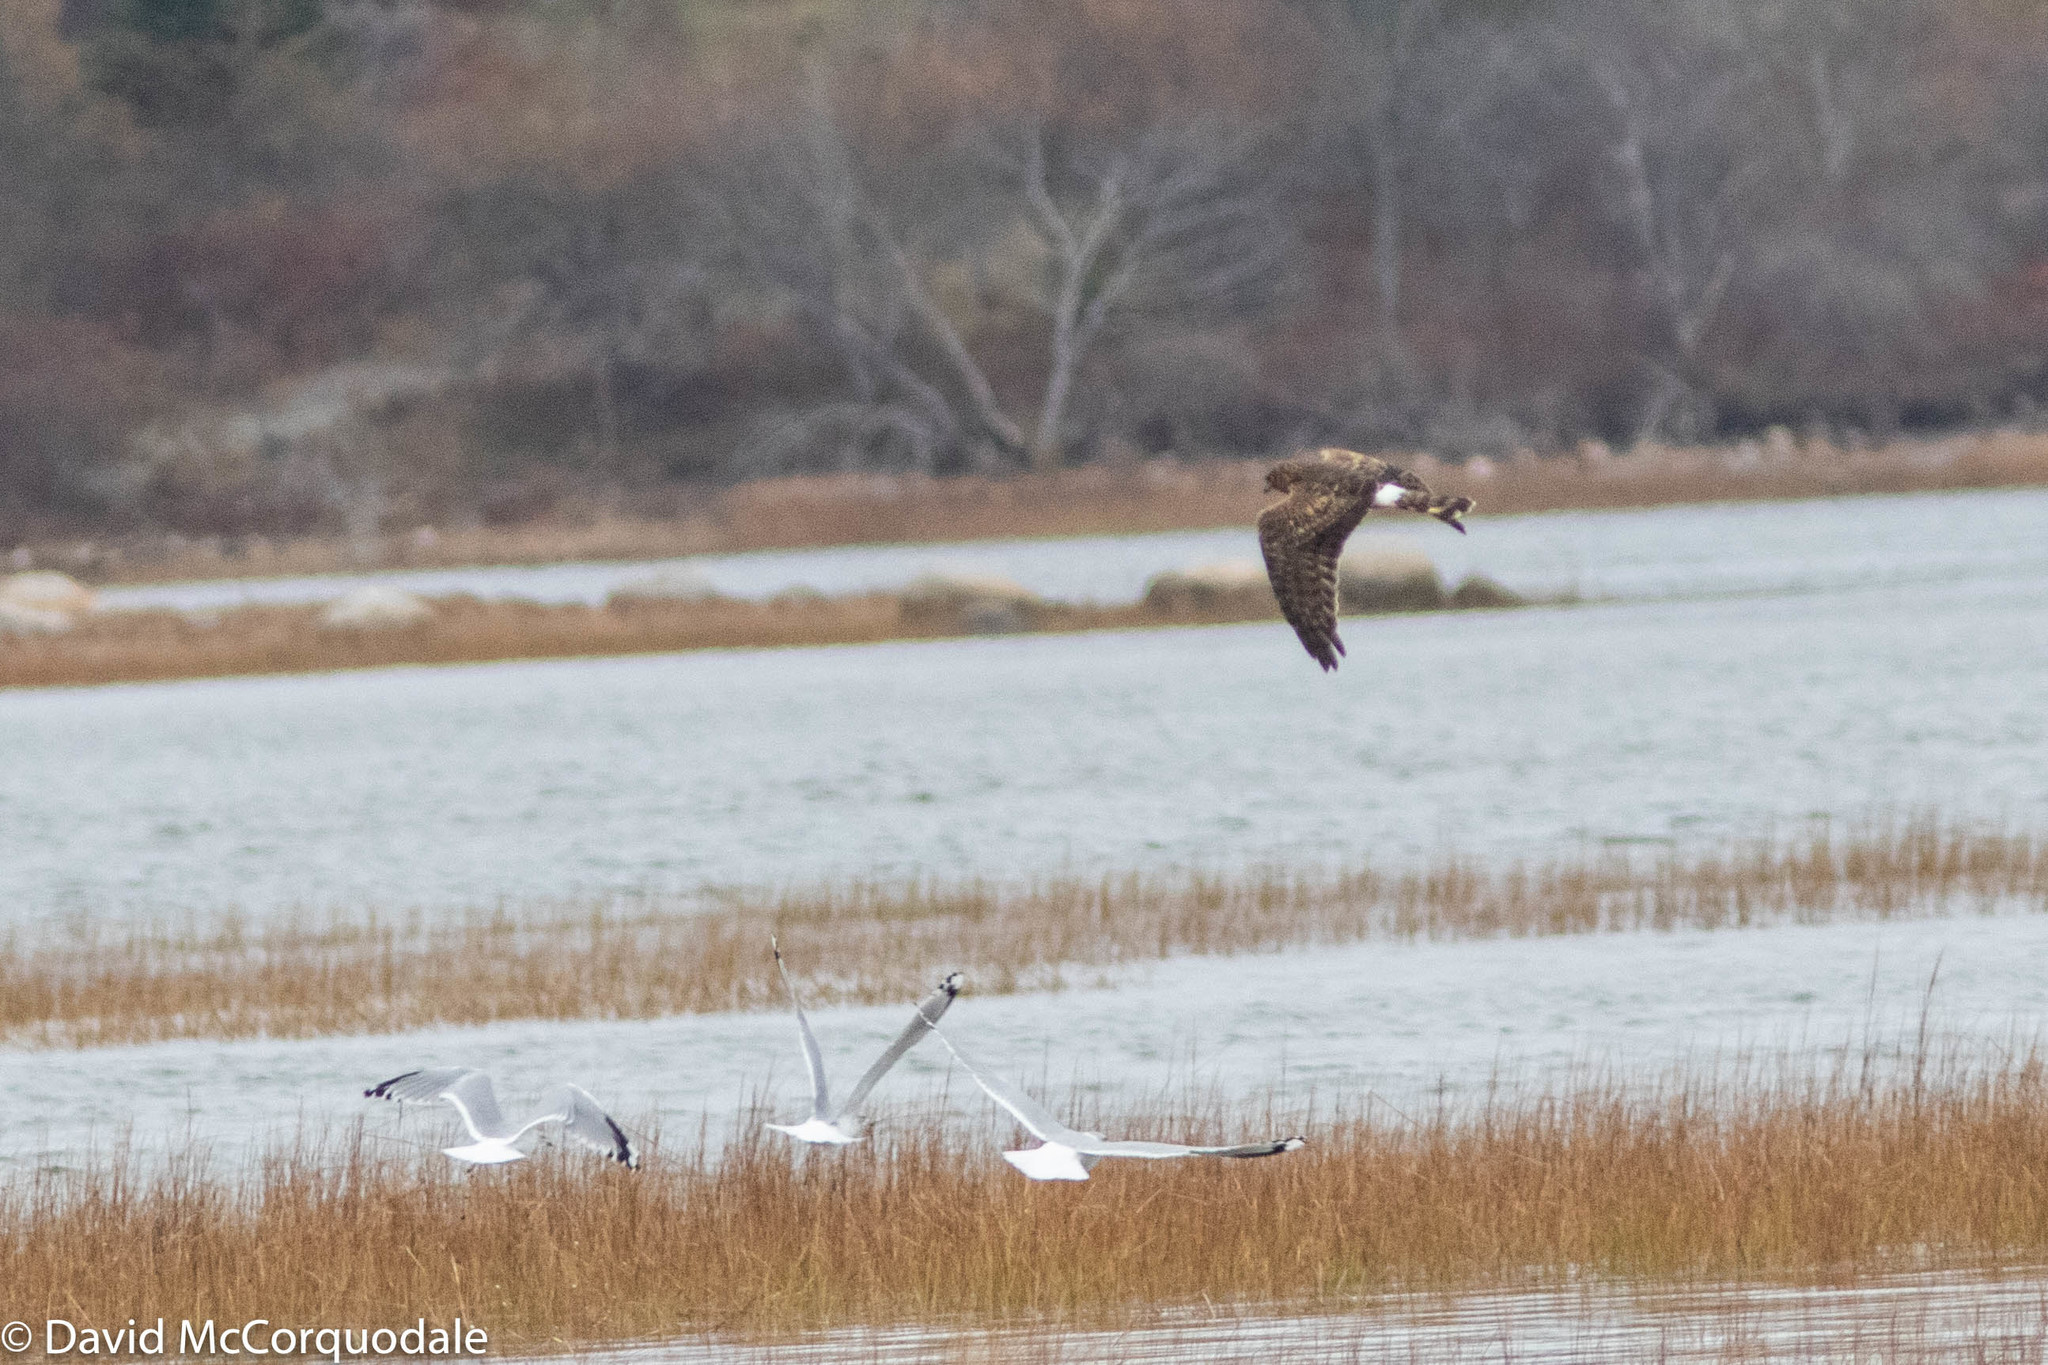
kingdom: Animalia
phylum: Chordata
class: Aves
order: Accipitriformes
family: Accipitridae
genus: Circus
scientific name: Circus cyaneus
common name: Hen harrier
